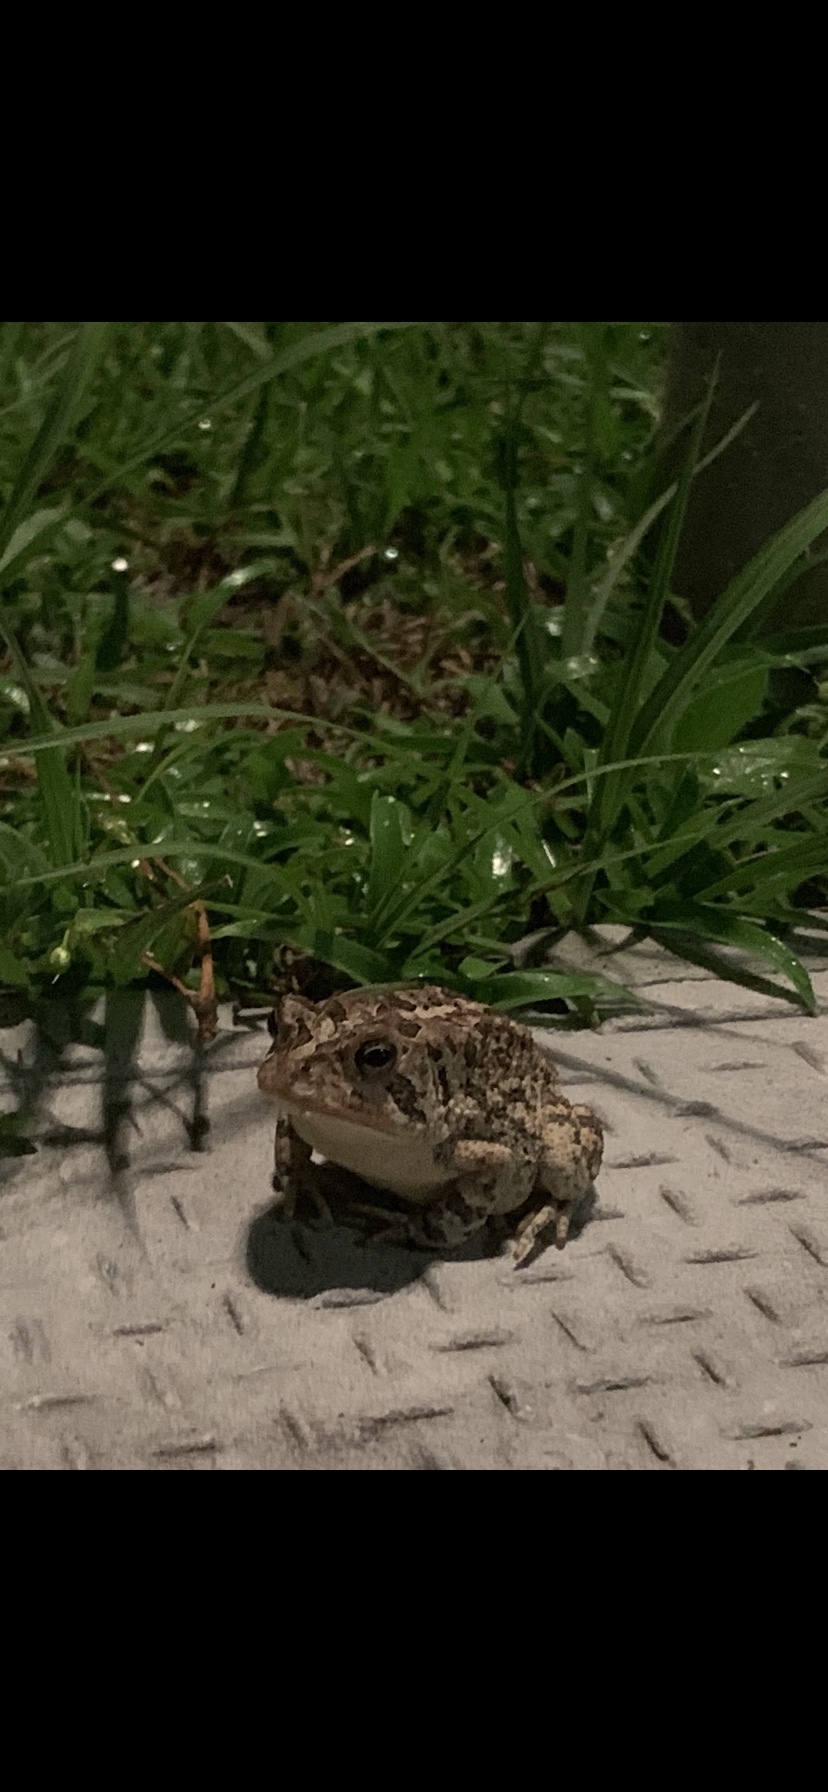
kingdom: Animalia
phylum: Chordata
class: Amphibia
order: Anura
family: Bufonidae
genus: Anaxyrus
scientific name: Anaxyrus terrestris
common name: Southern toad
